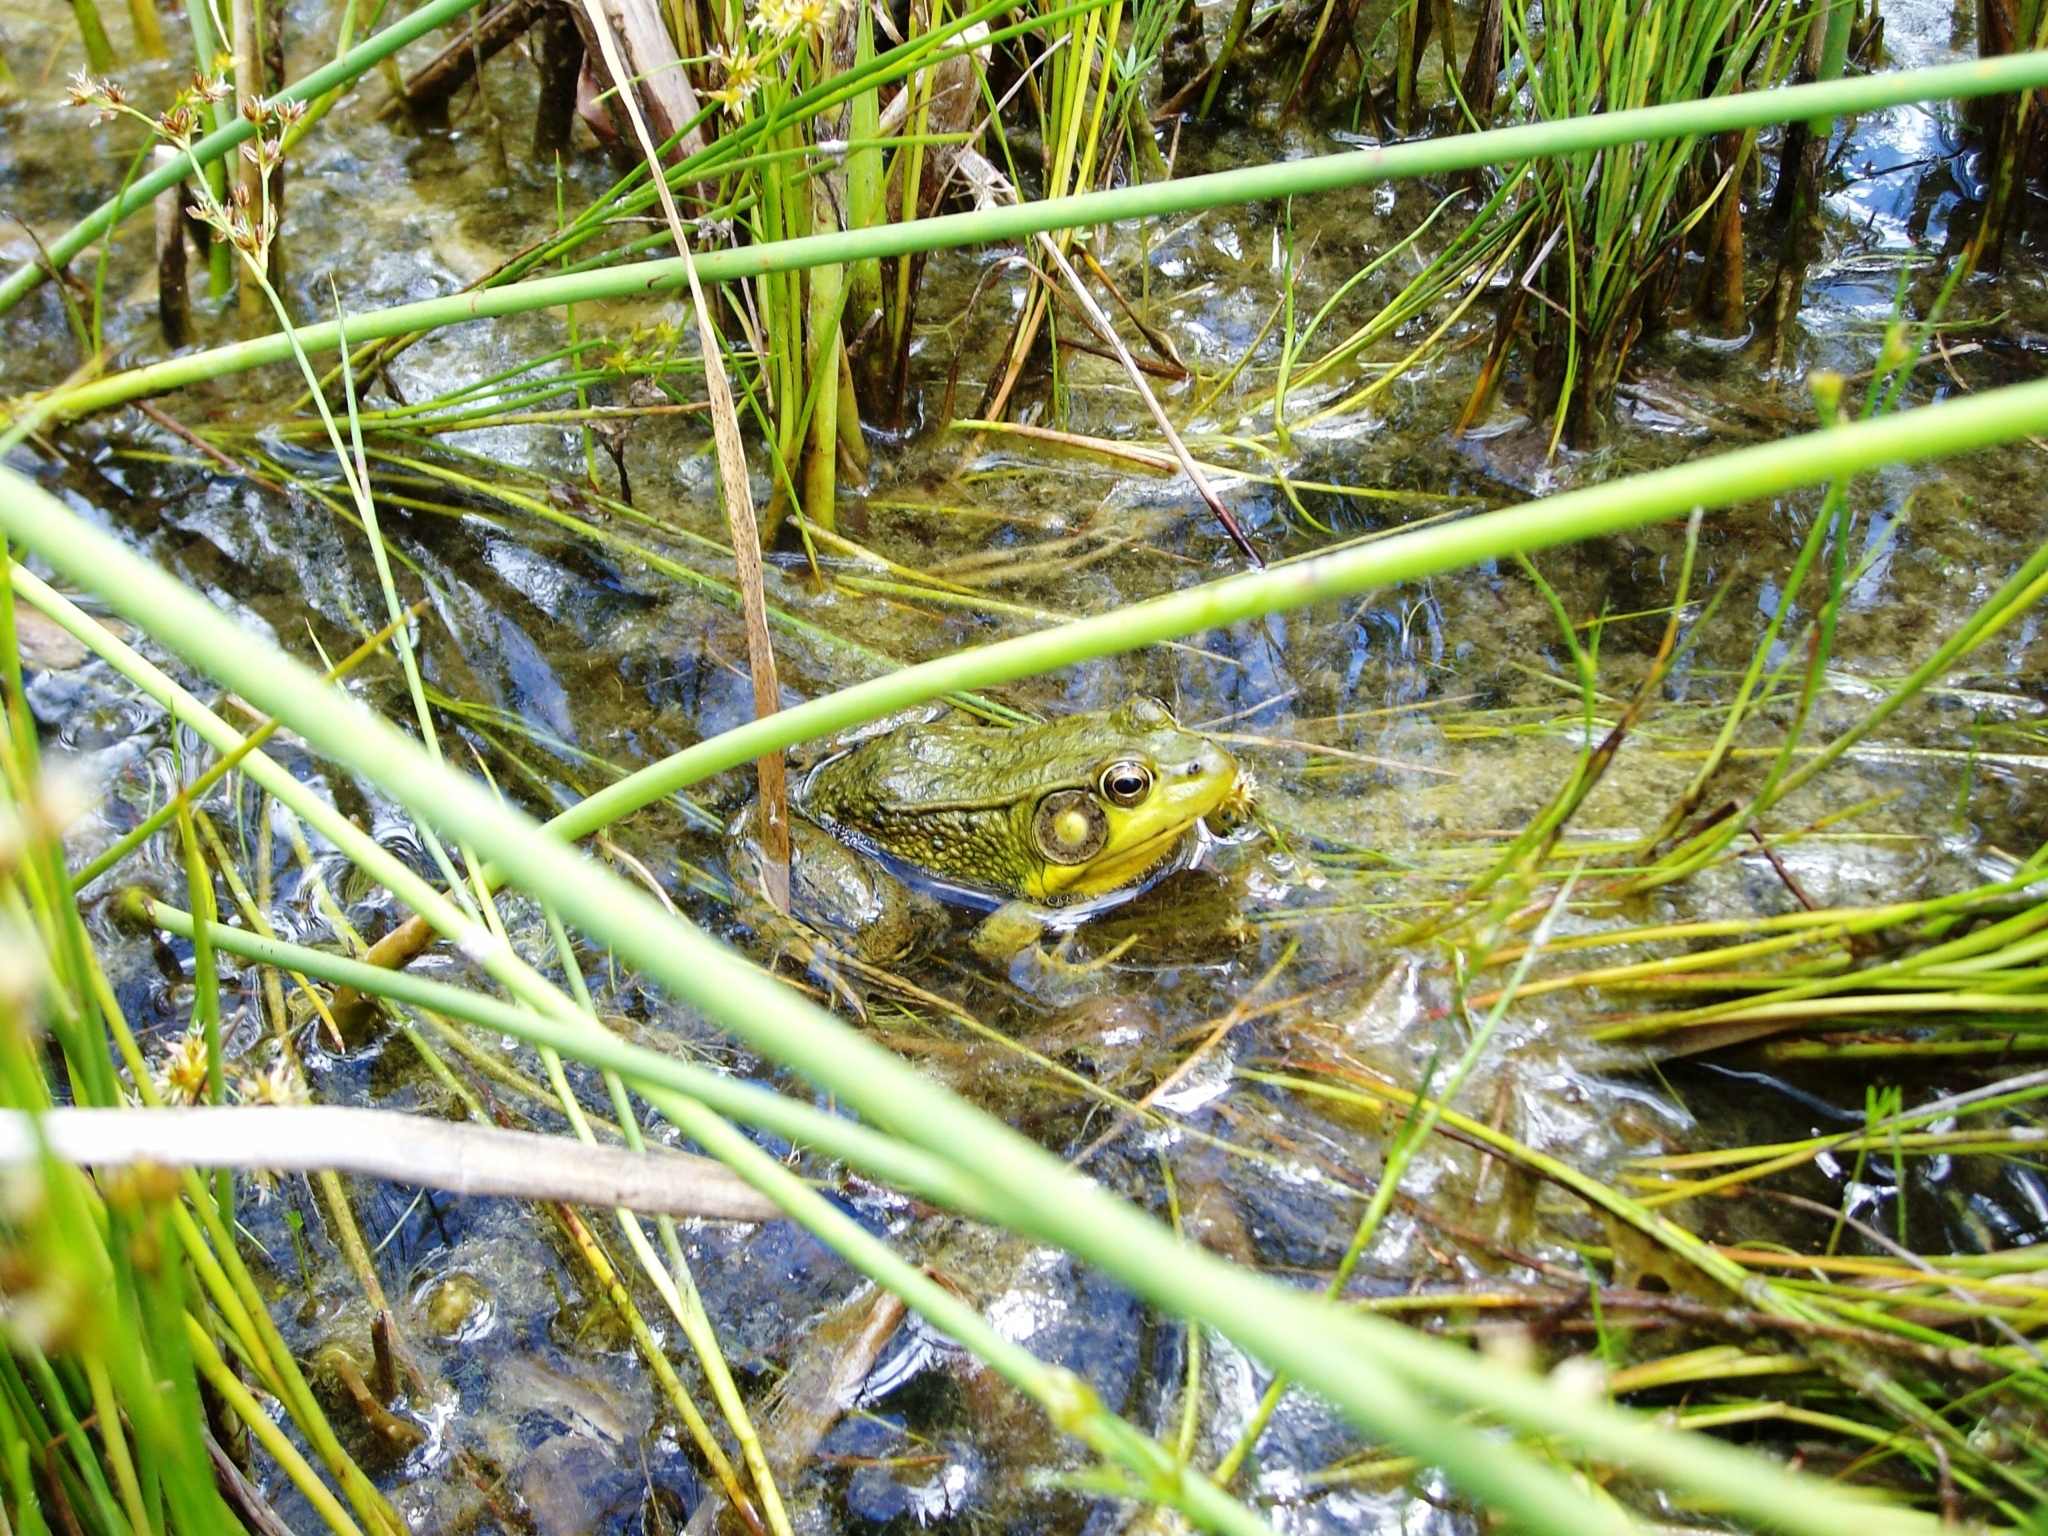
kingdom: Animalia
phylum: Chordata
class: Amphibia
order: Anura
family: Ranidae
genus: Lithobates
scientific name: Lithobates clamitans
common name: Green frog
